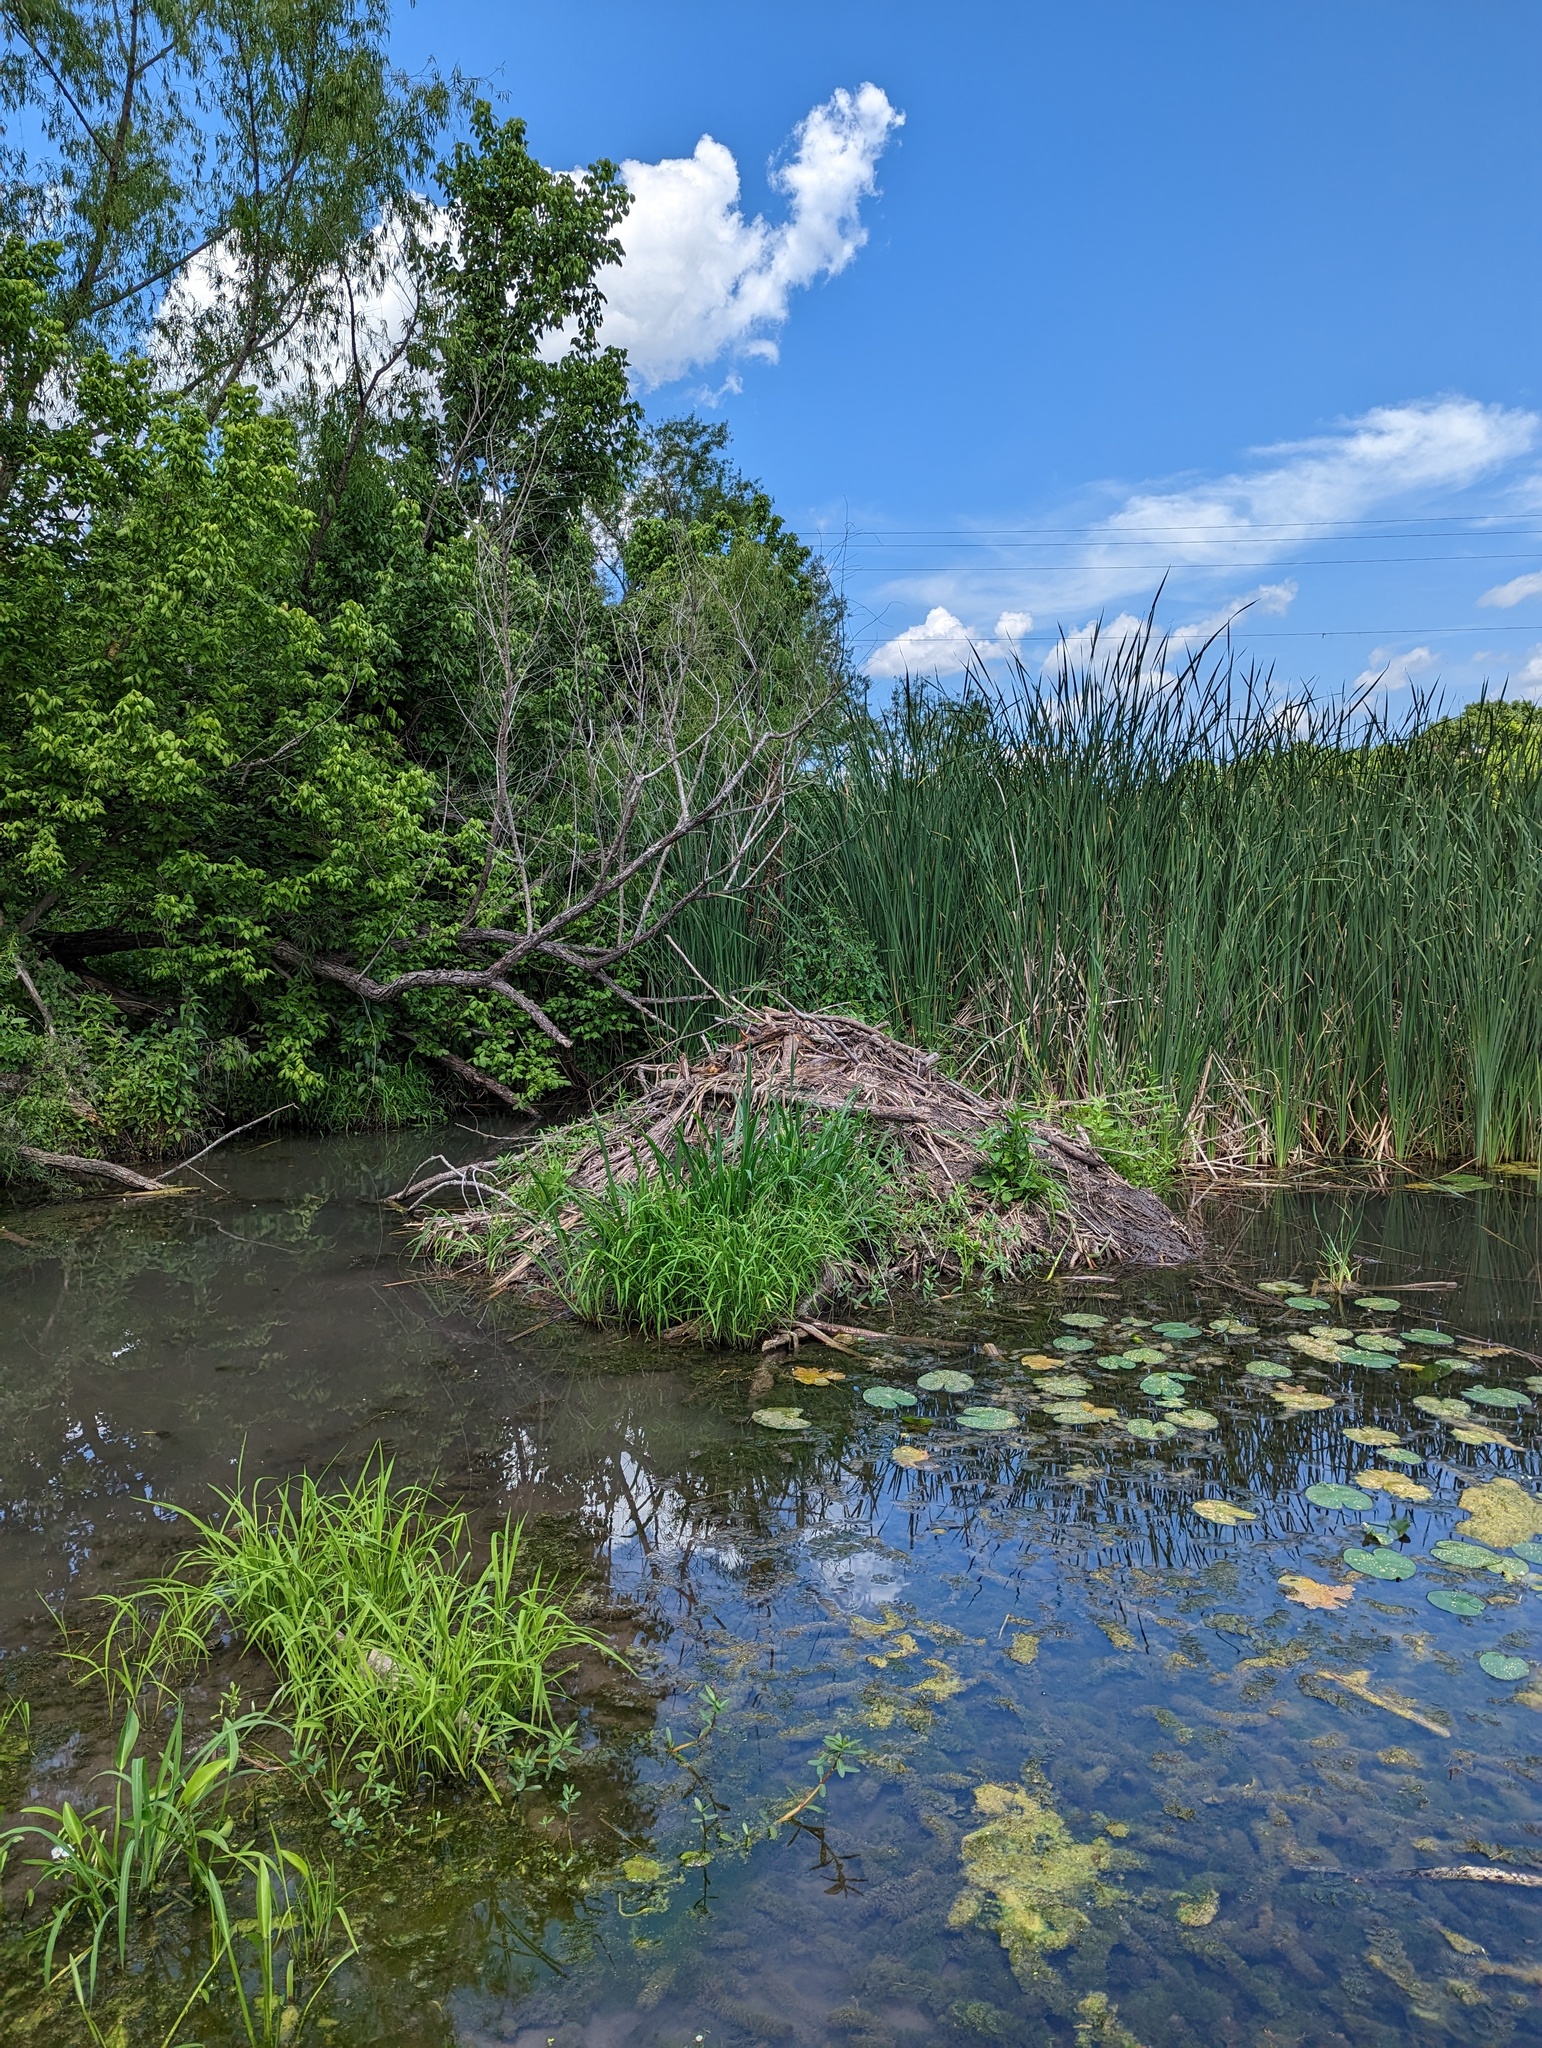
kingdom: Animalia
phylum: Chordata
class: Mammalia
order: Rodentia
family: Castoridae
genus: Castor
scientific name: Castor canadensis
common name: American beaver
